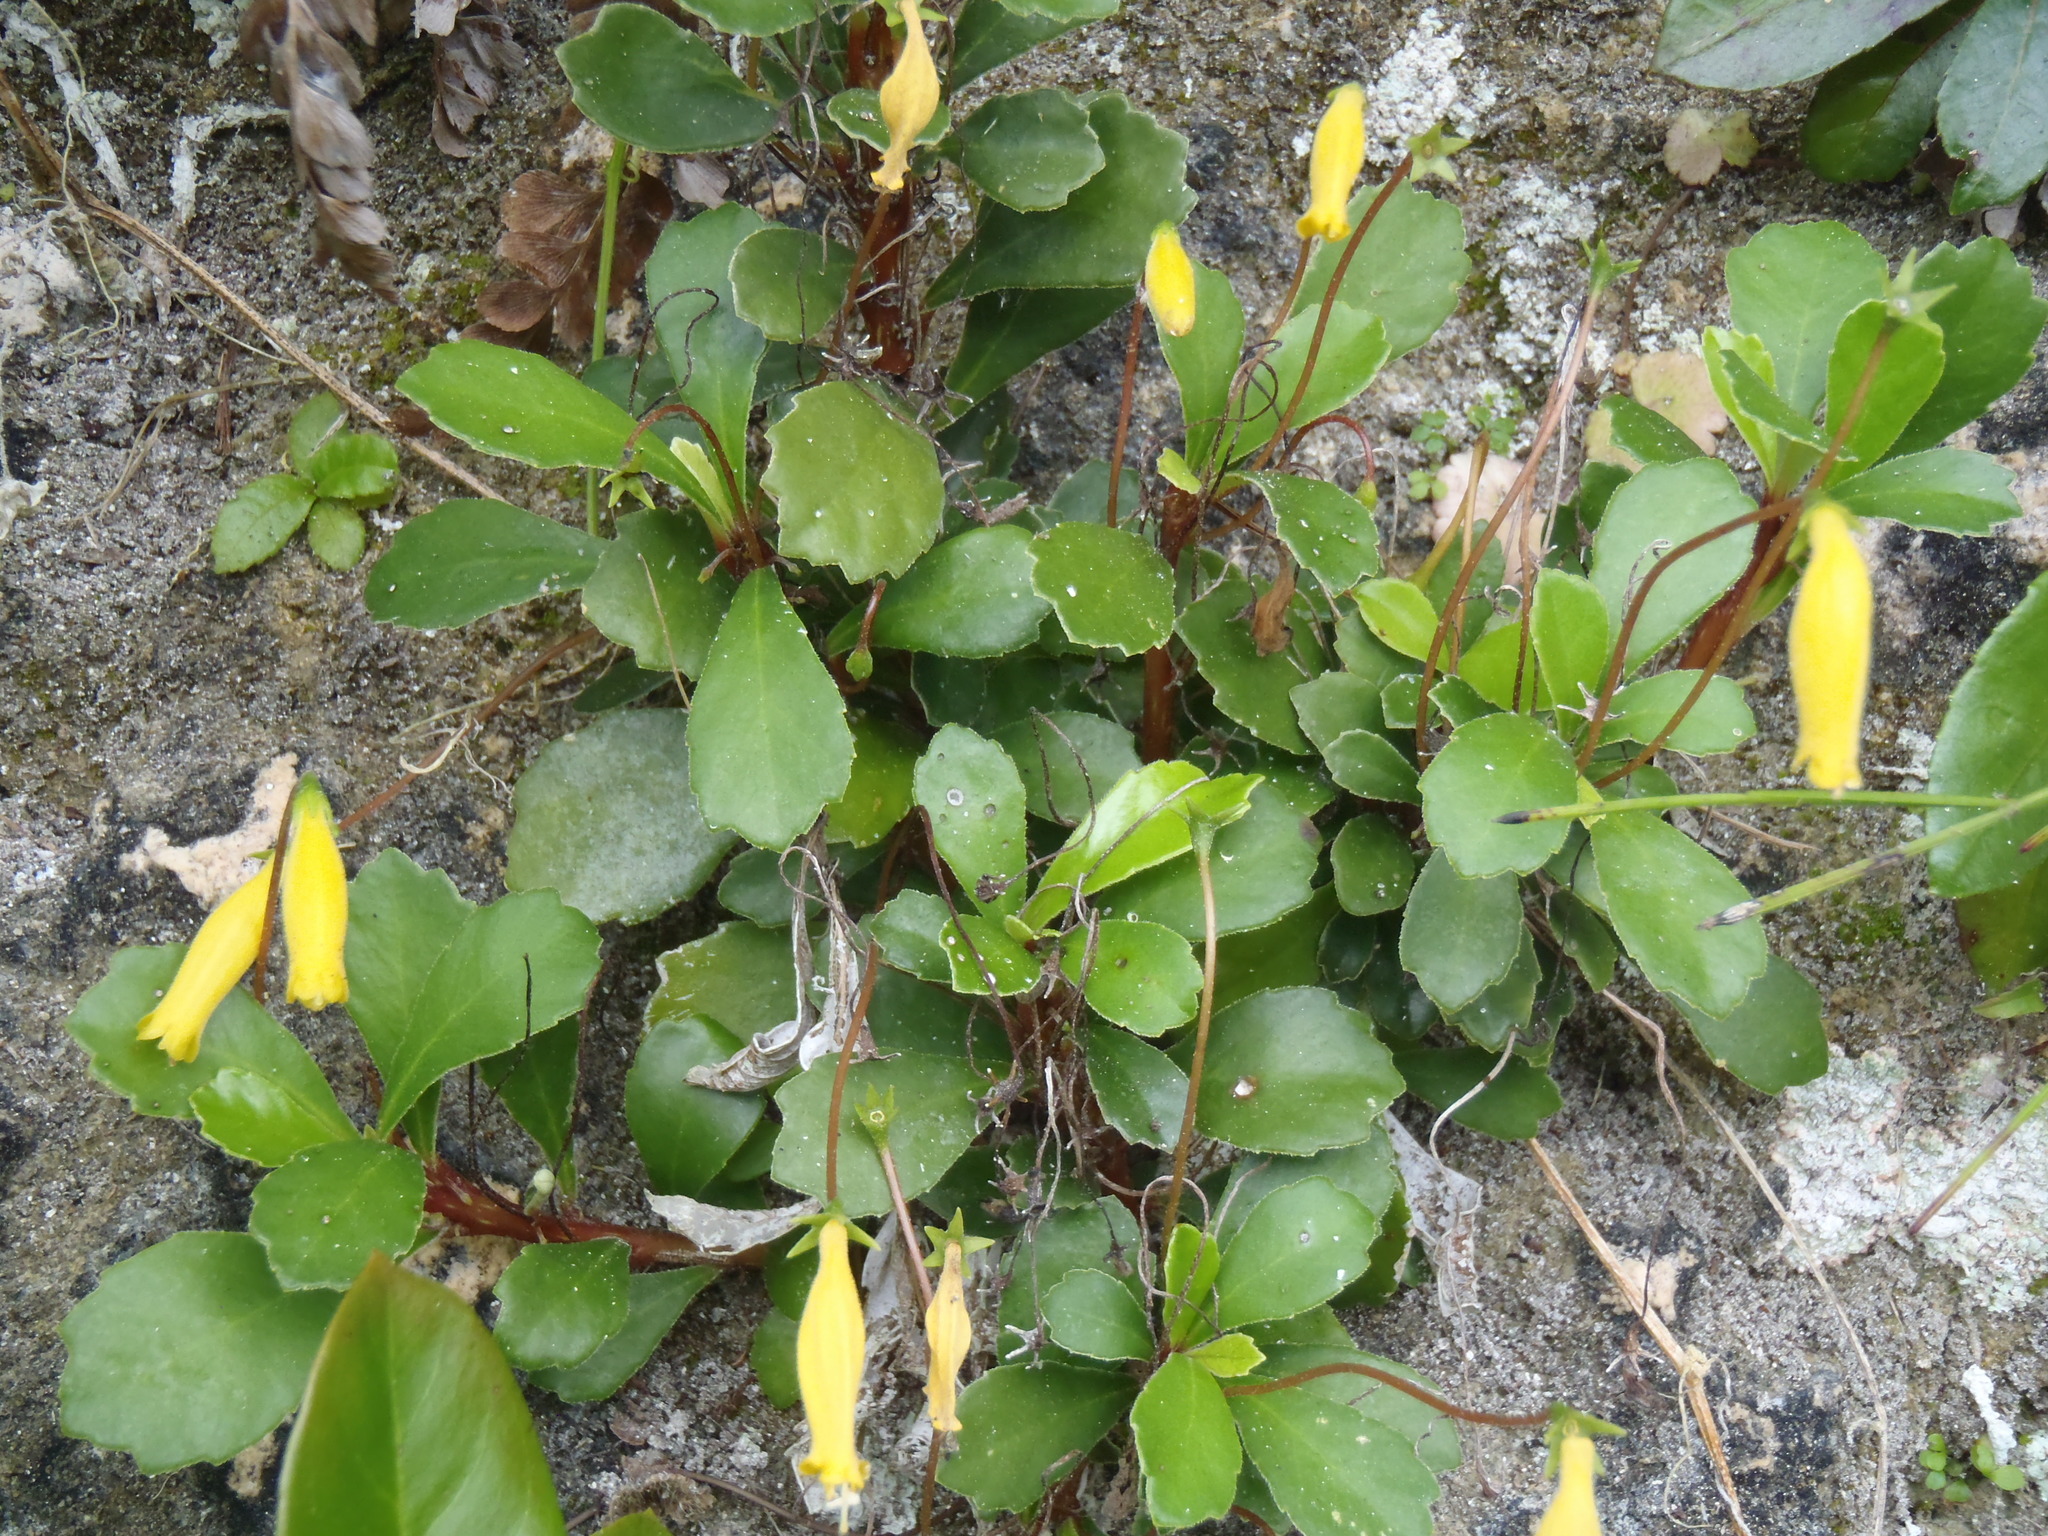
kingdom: Plantae
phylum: Tracheophyta
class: Magnoliopsida
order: Lamiales
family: Gesneriaceae
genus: Gesneria
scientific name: Gesneria citrina
